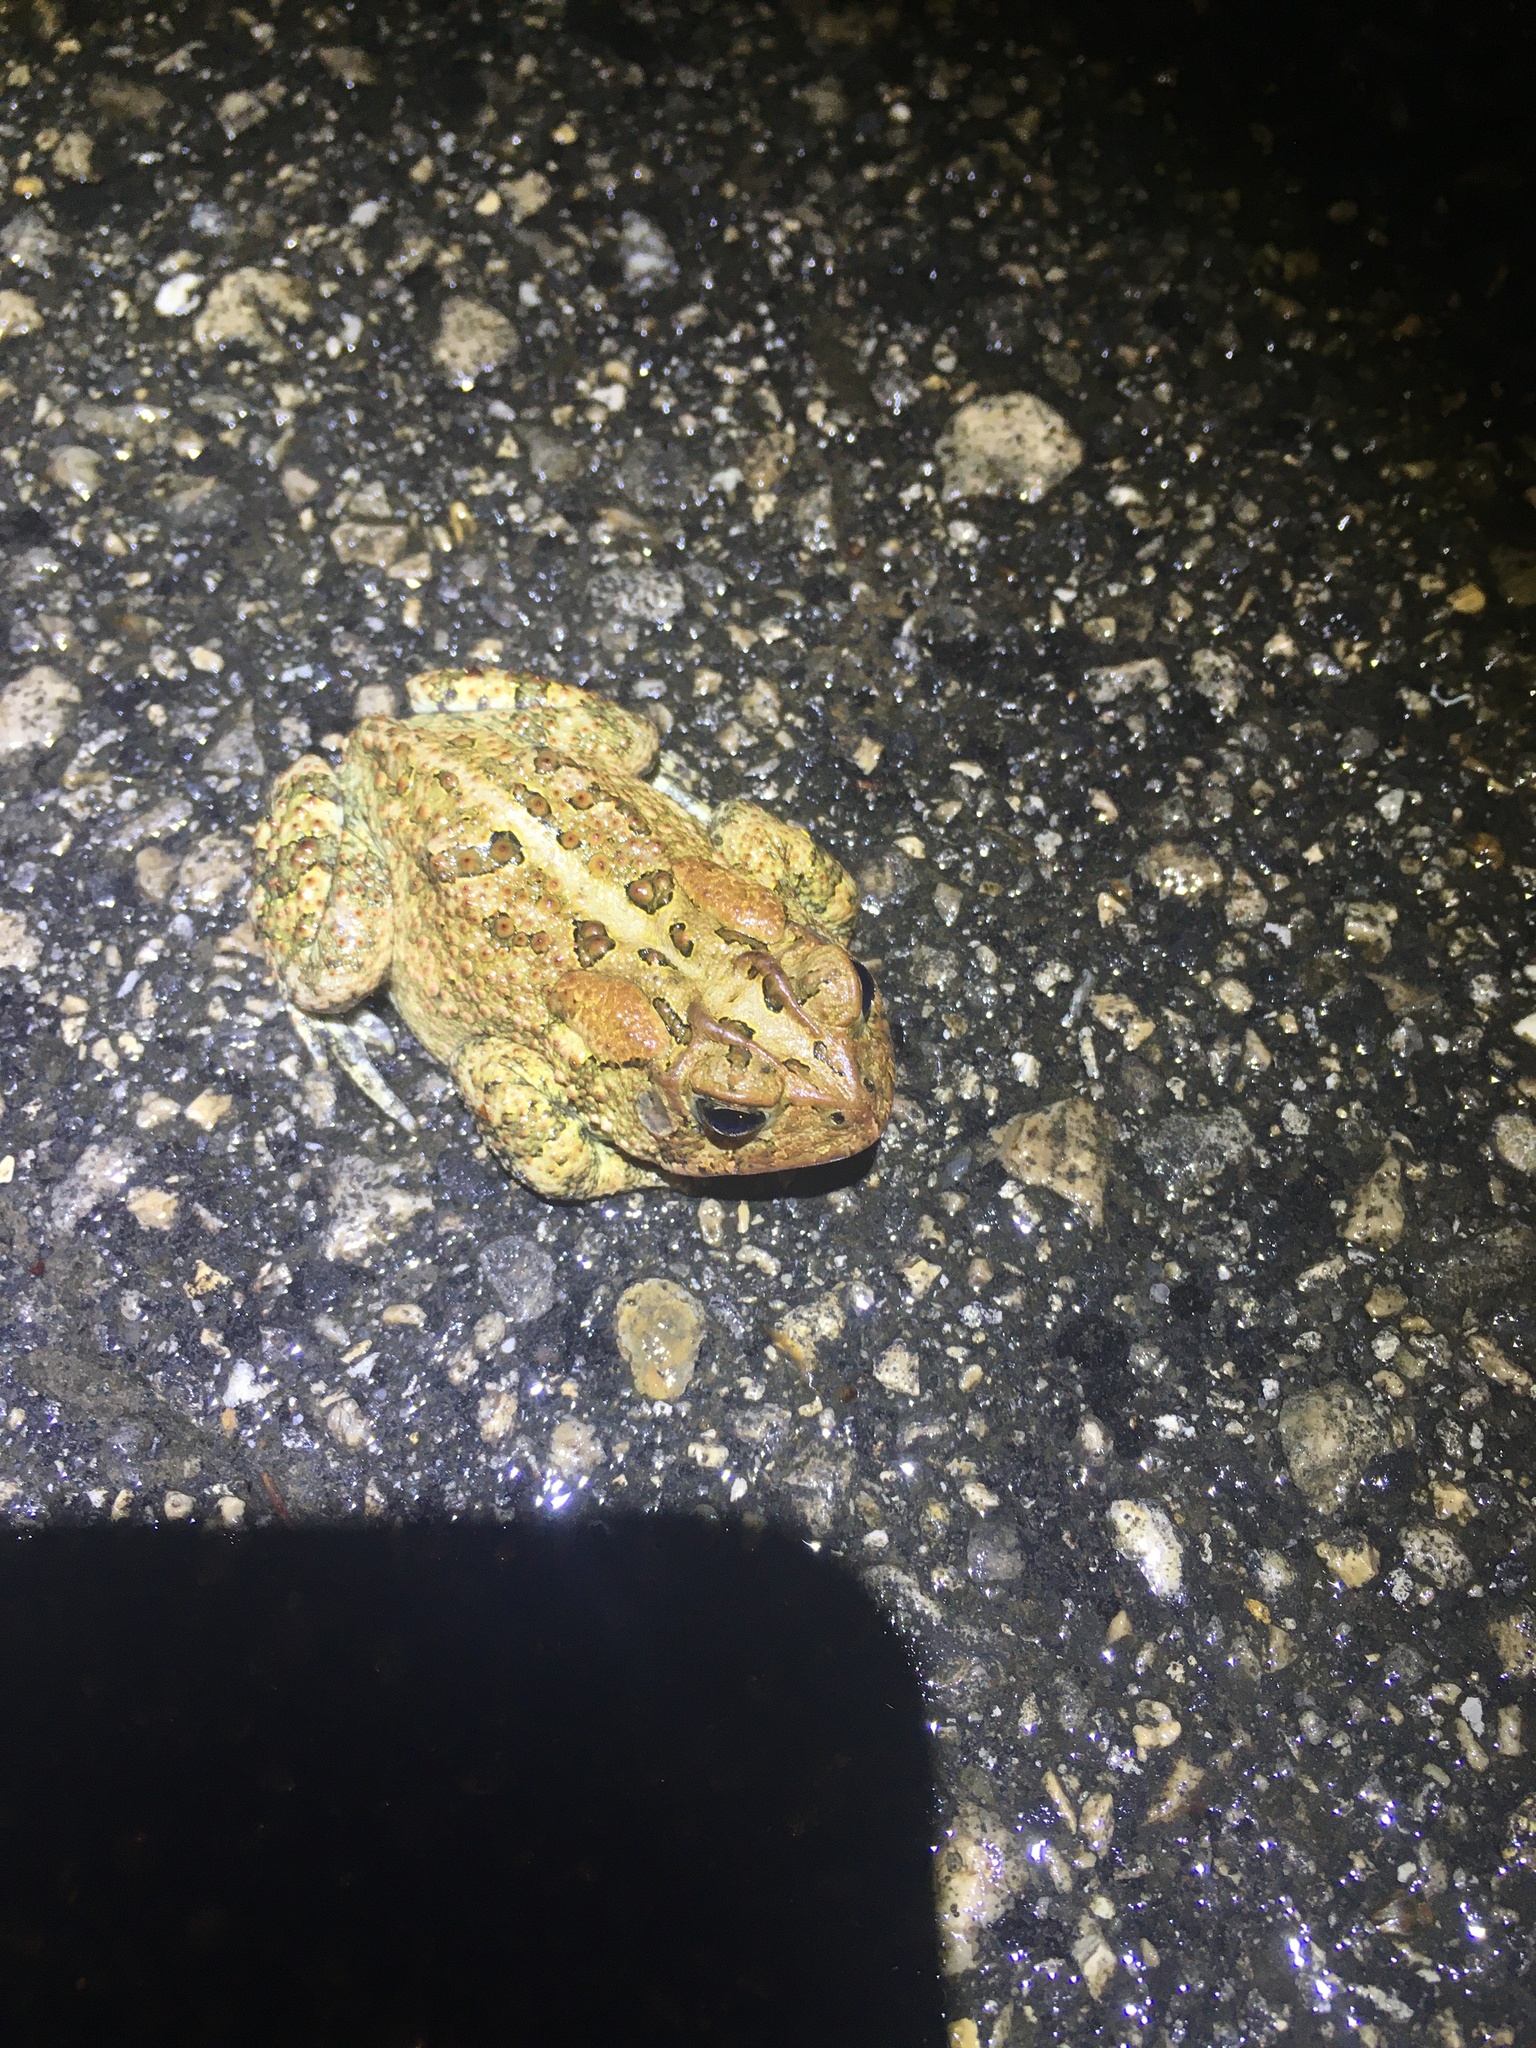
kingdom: Animalia
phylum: Chordata
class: Amphibia
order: Anura
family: Bufonidae
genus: Anaxyrus
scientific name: Anaxyrus terrestris
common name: Southern toad
